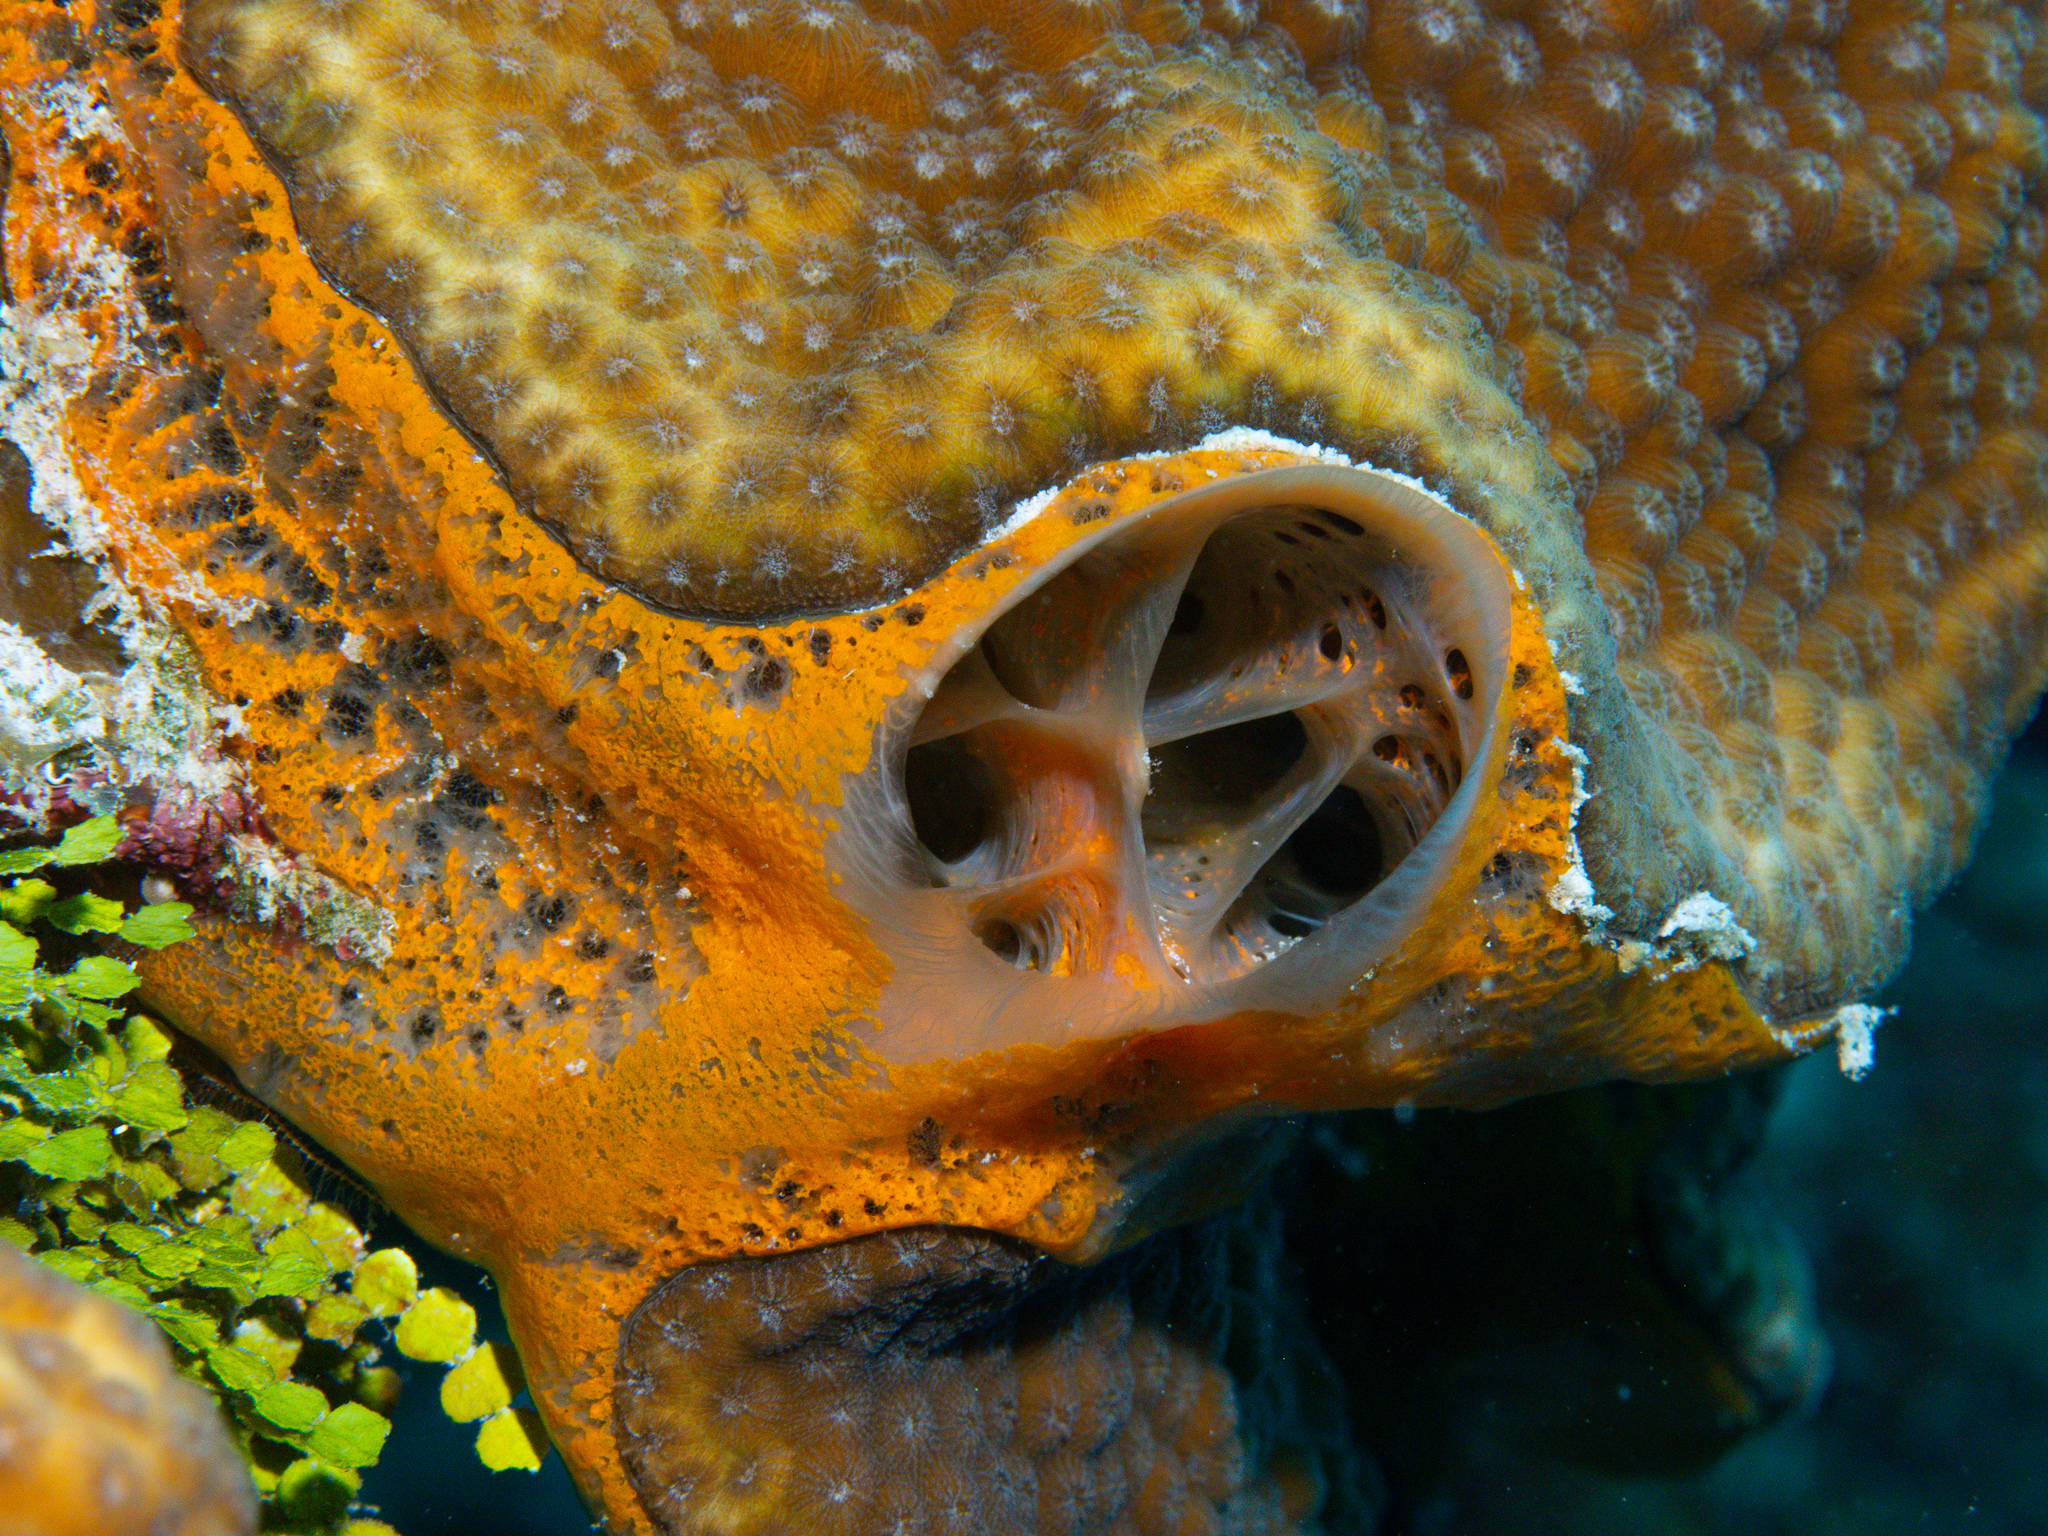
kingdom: Animalia
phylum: Porifera
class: Demospongiae
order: Poecilosclerida
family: Mycalidae
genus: Mycale
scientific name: Mycale laevis
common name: Orange icing sponge
